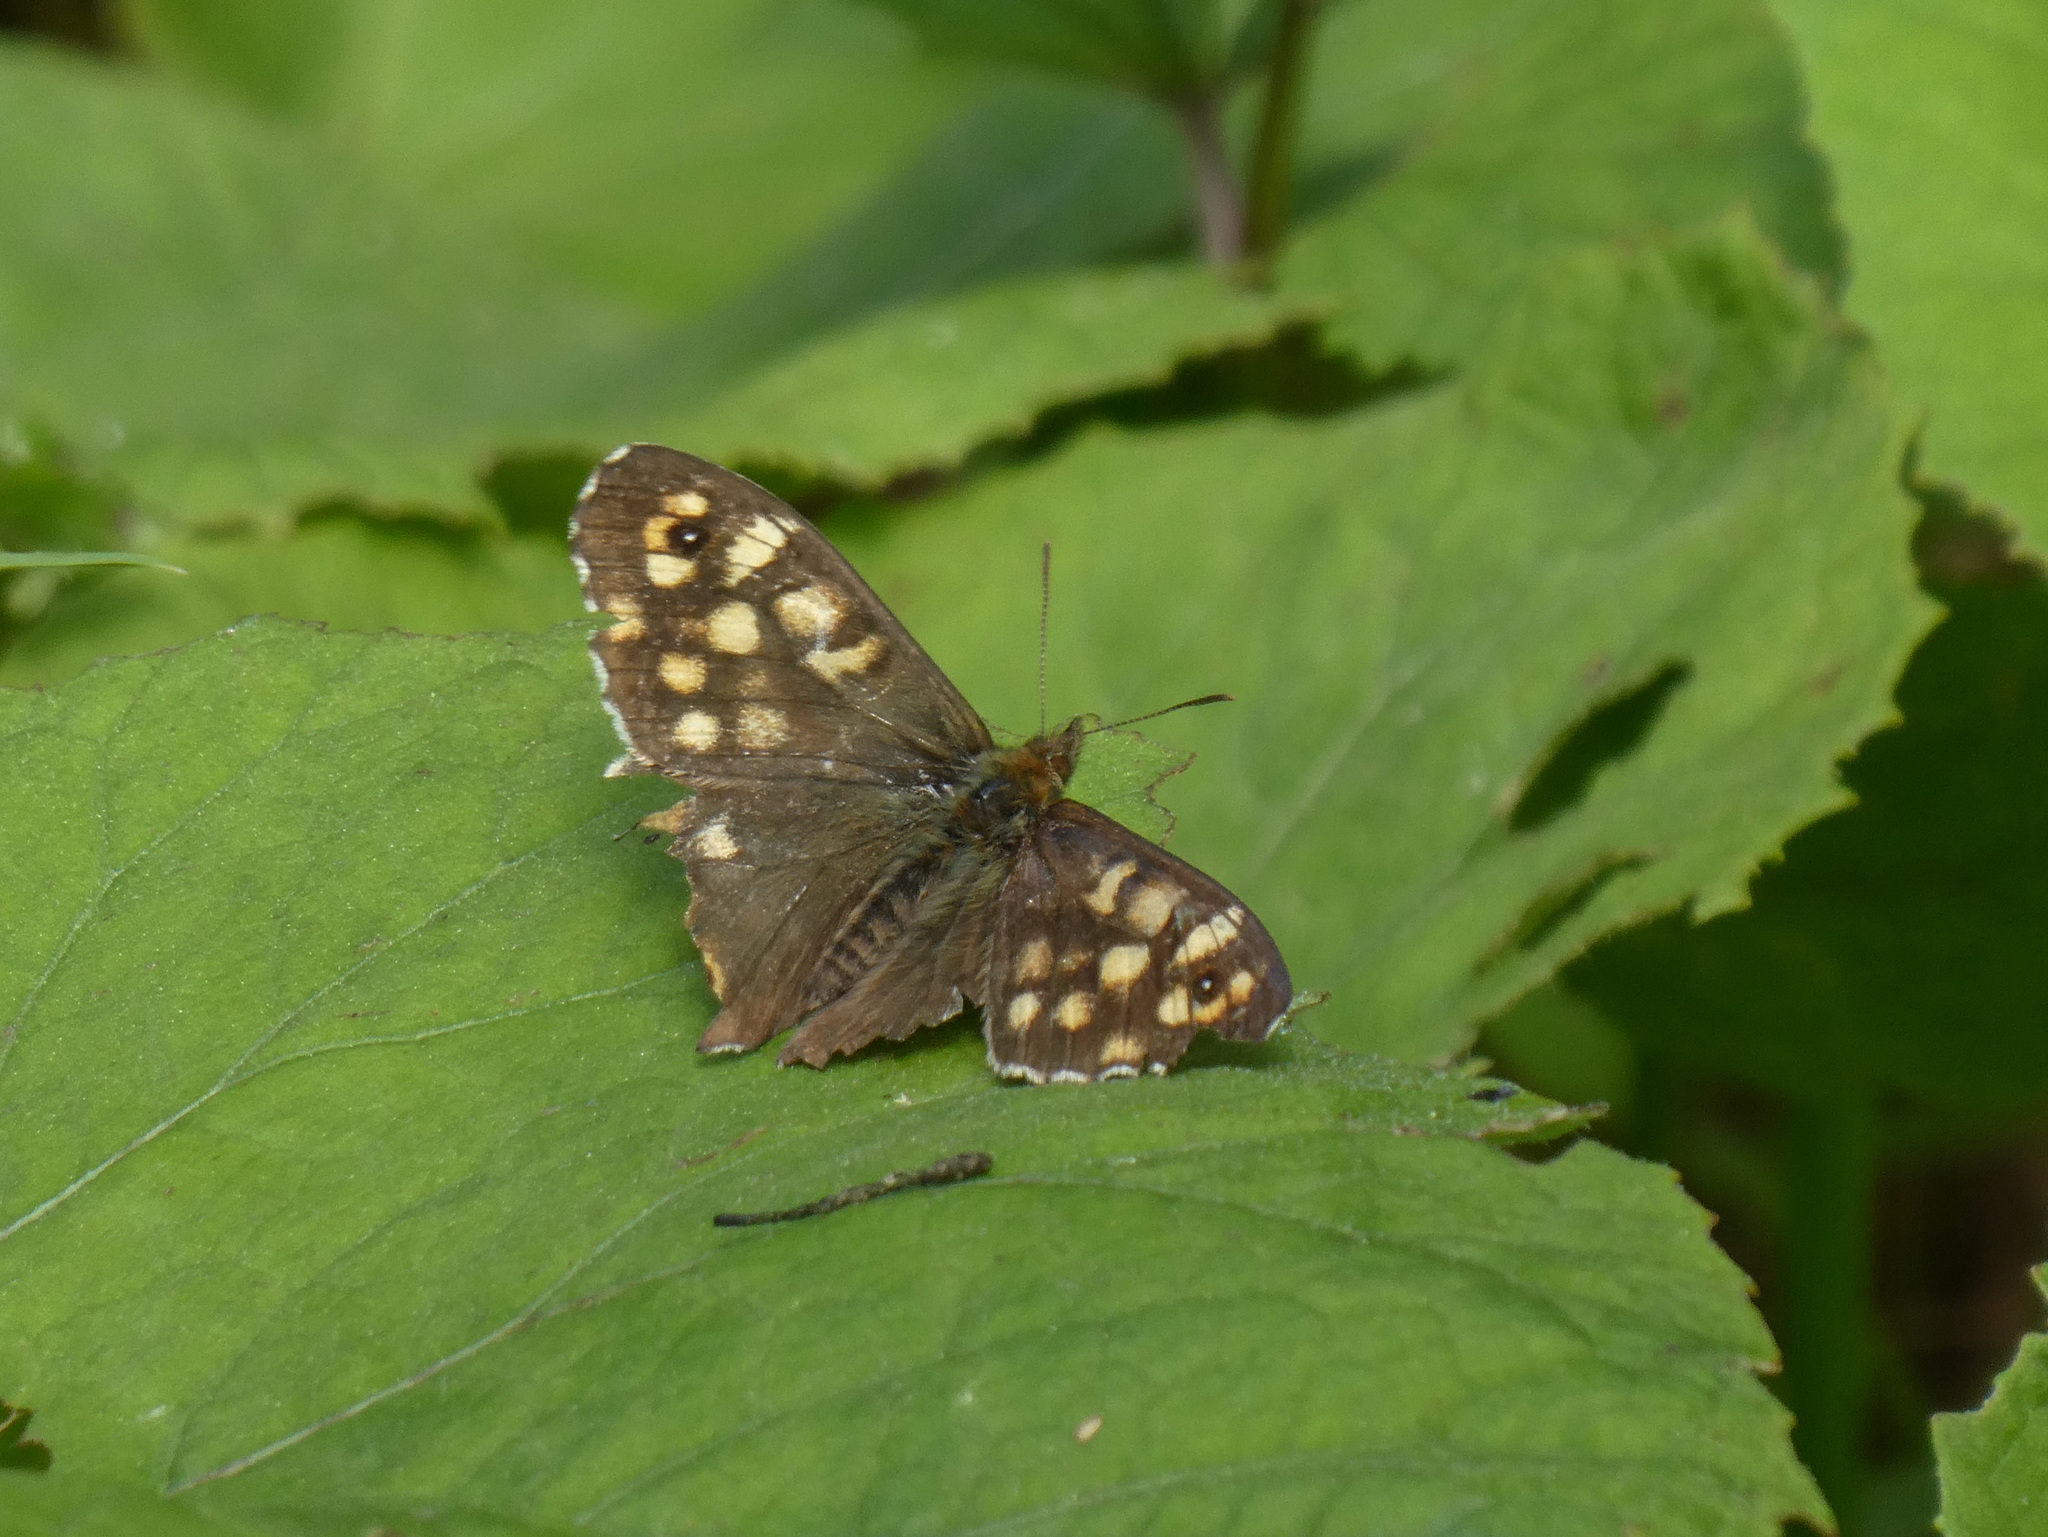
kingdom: Animalia
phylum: Arthropoda
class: Insecta
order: Lepidoptera
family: Nymphalidae
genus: Pararge
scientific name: Pararge aegeria
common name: Speckled wood
